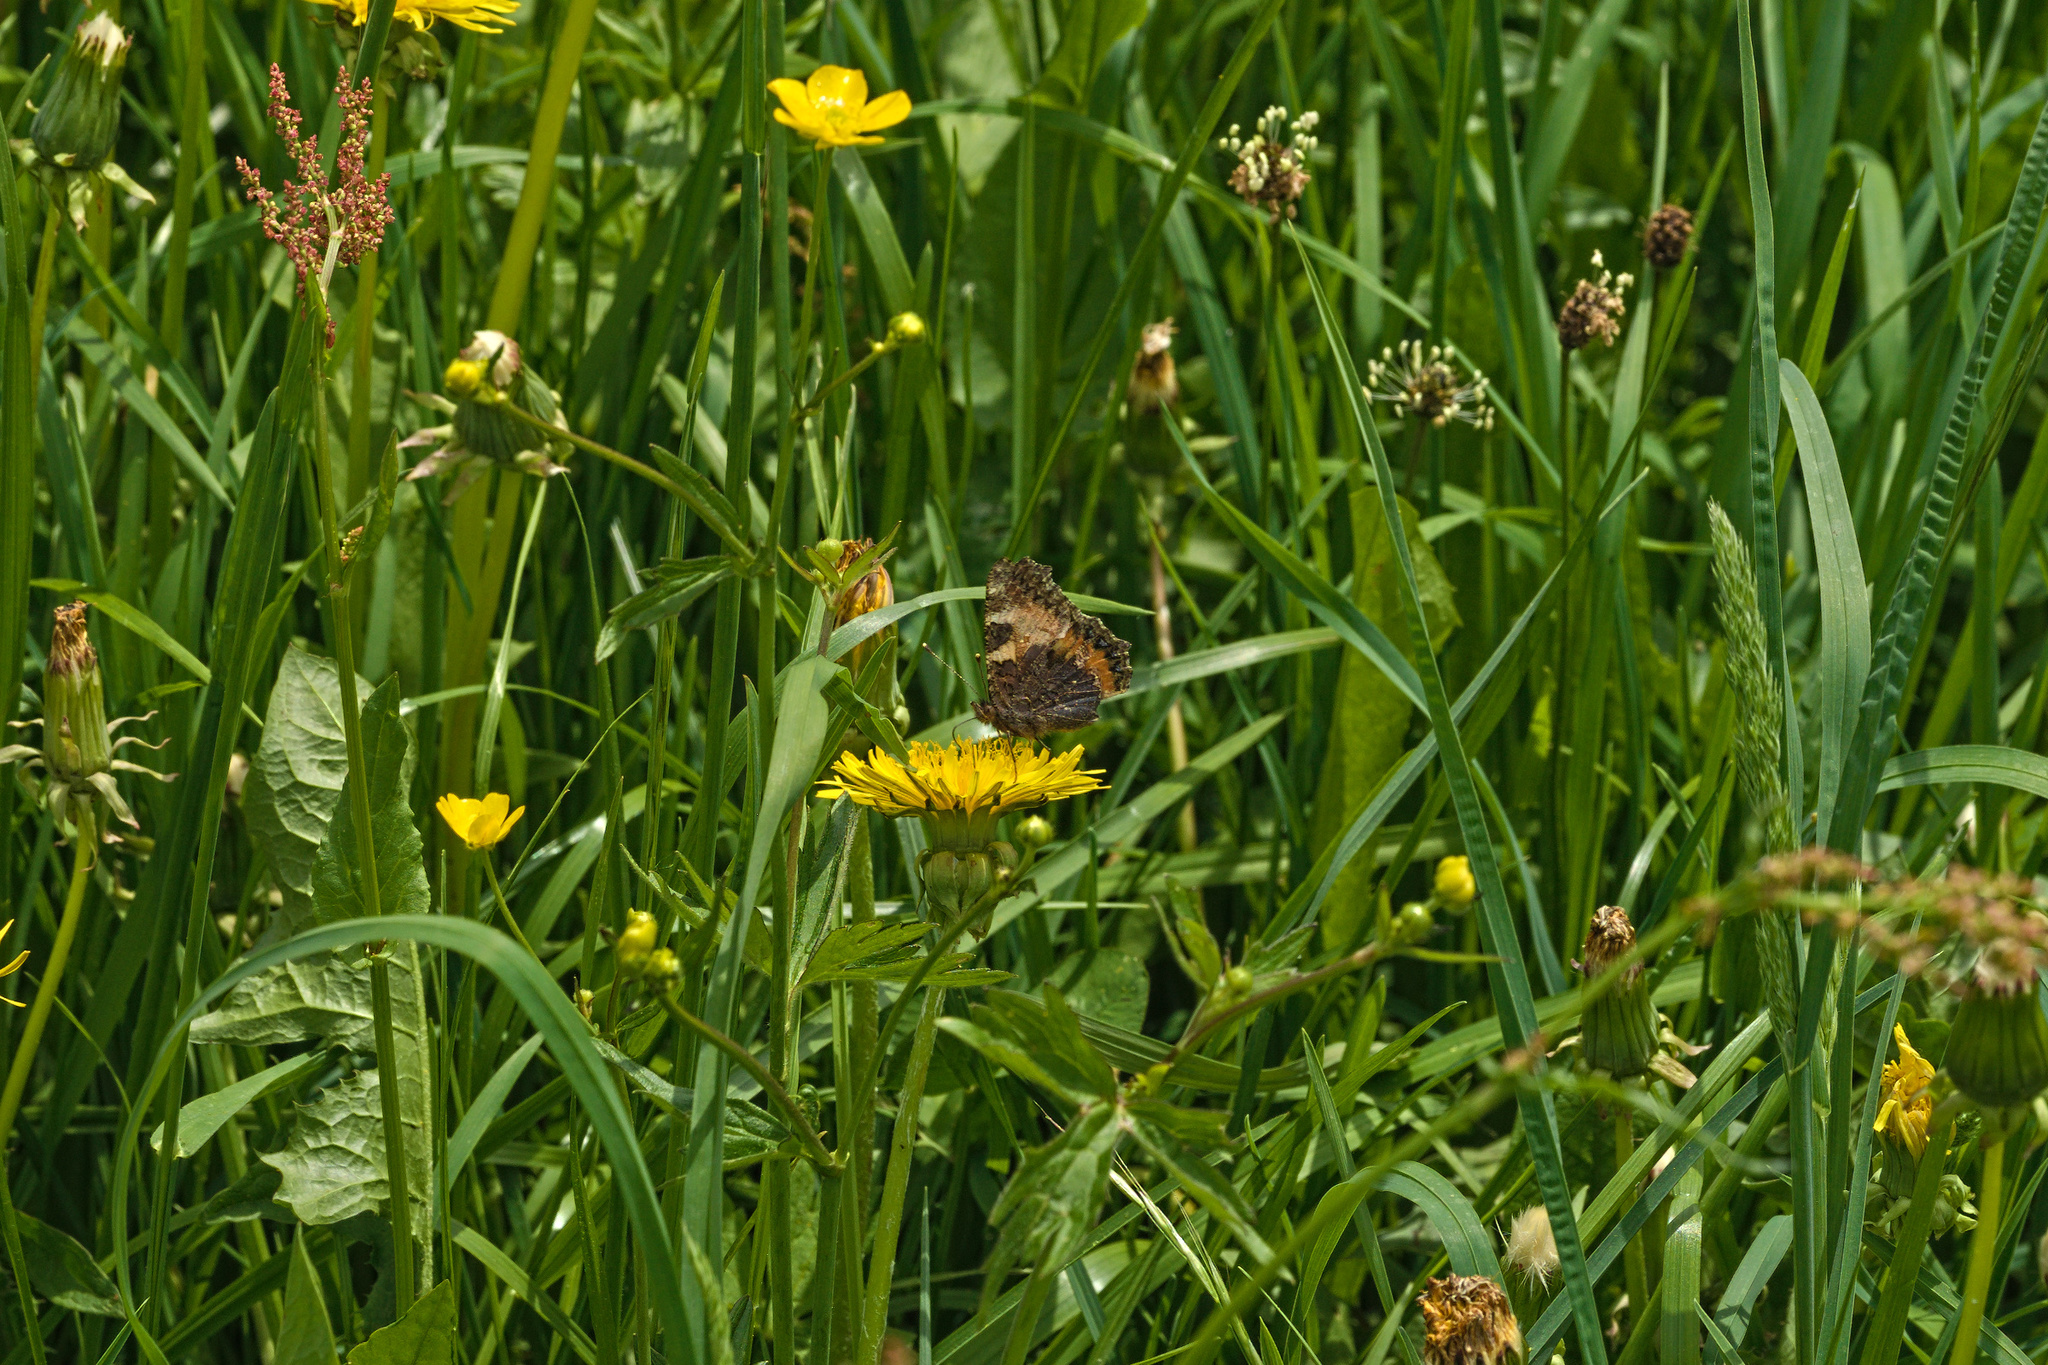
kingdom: Animalia
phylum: Arthropoda
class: Insecta
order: Lepidoptera
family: Nymphalidae
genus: Aglais
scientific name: Aglais urticae
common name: Small tortoiseshell
